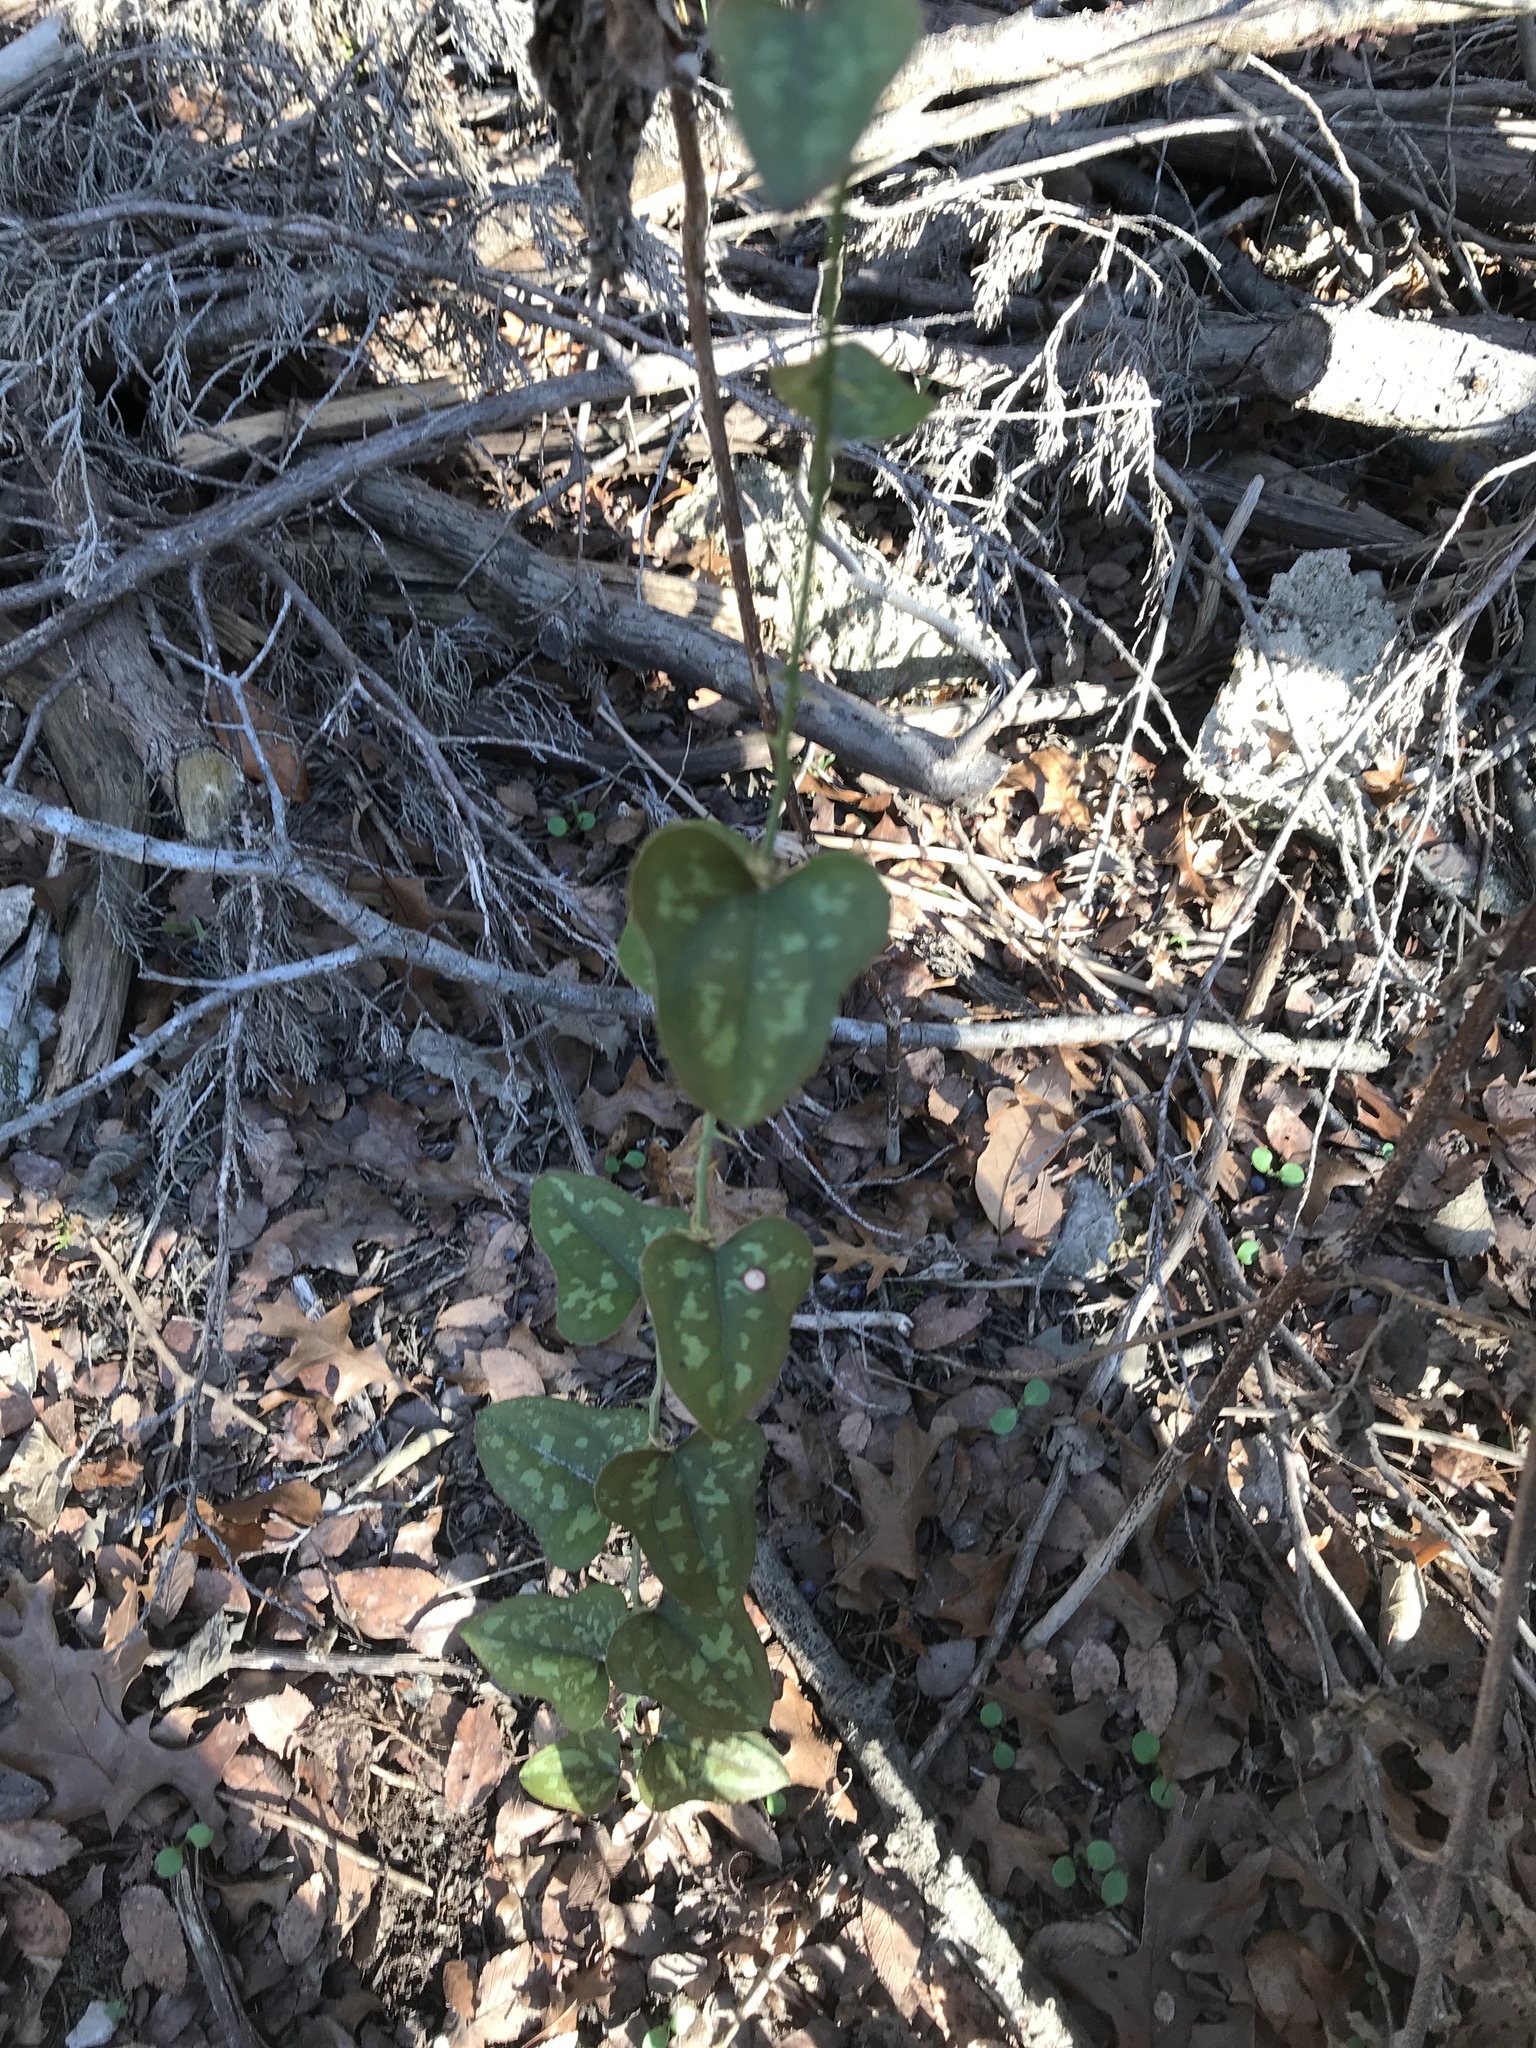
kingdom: Plantae
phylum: Tracheophyta
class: Liliopsida
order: Liliales
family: Smilacaceae
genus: Smilax
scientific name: Smilax bona-nox
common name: Catbrier
